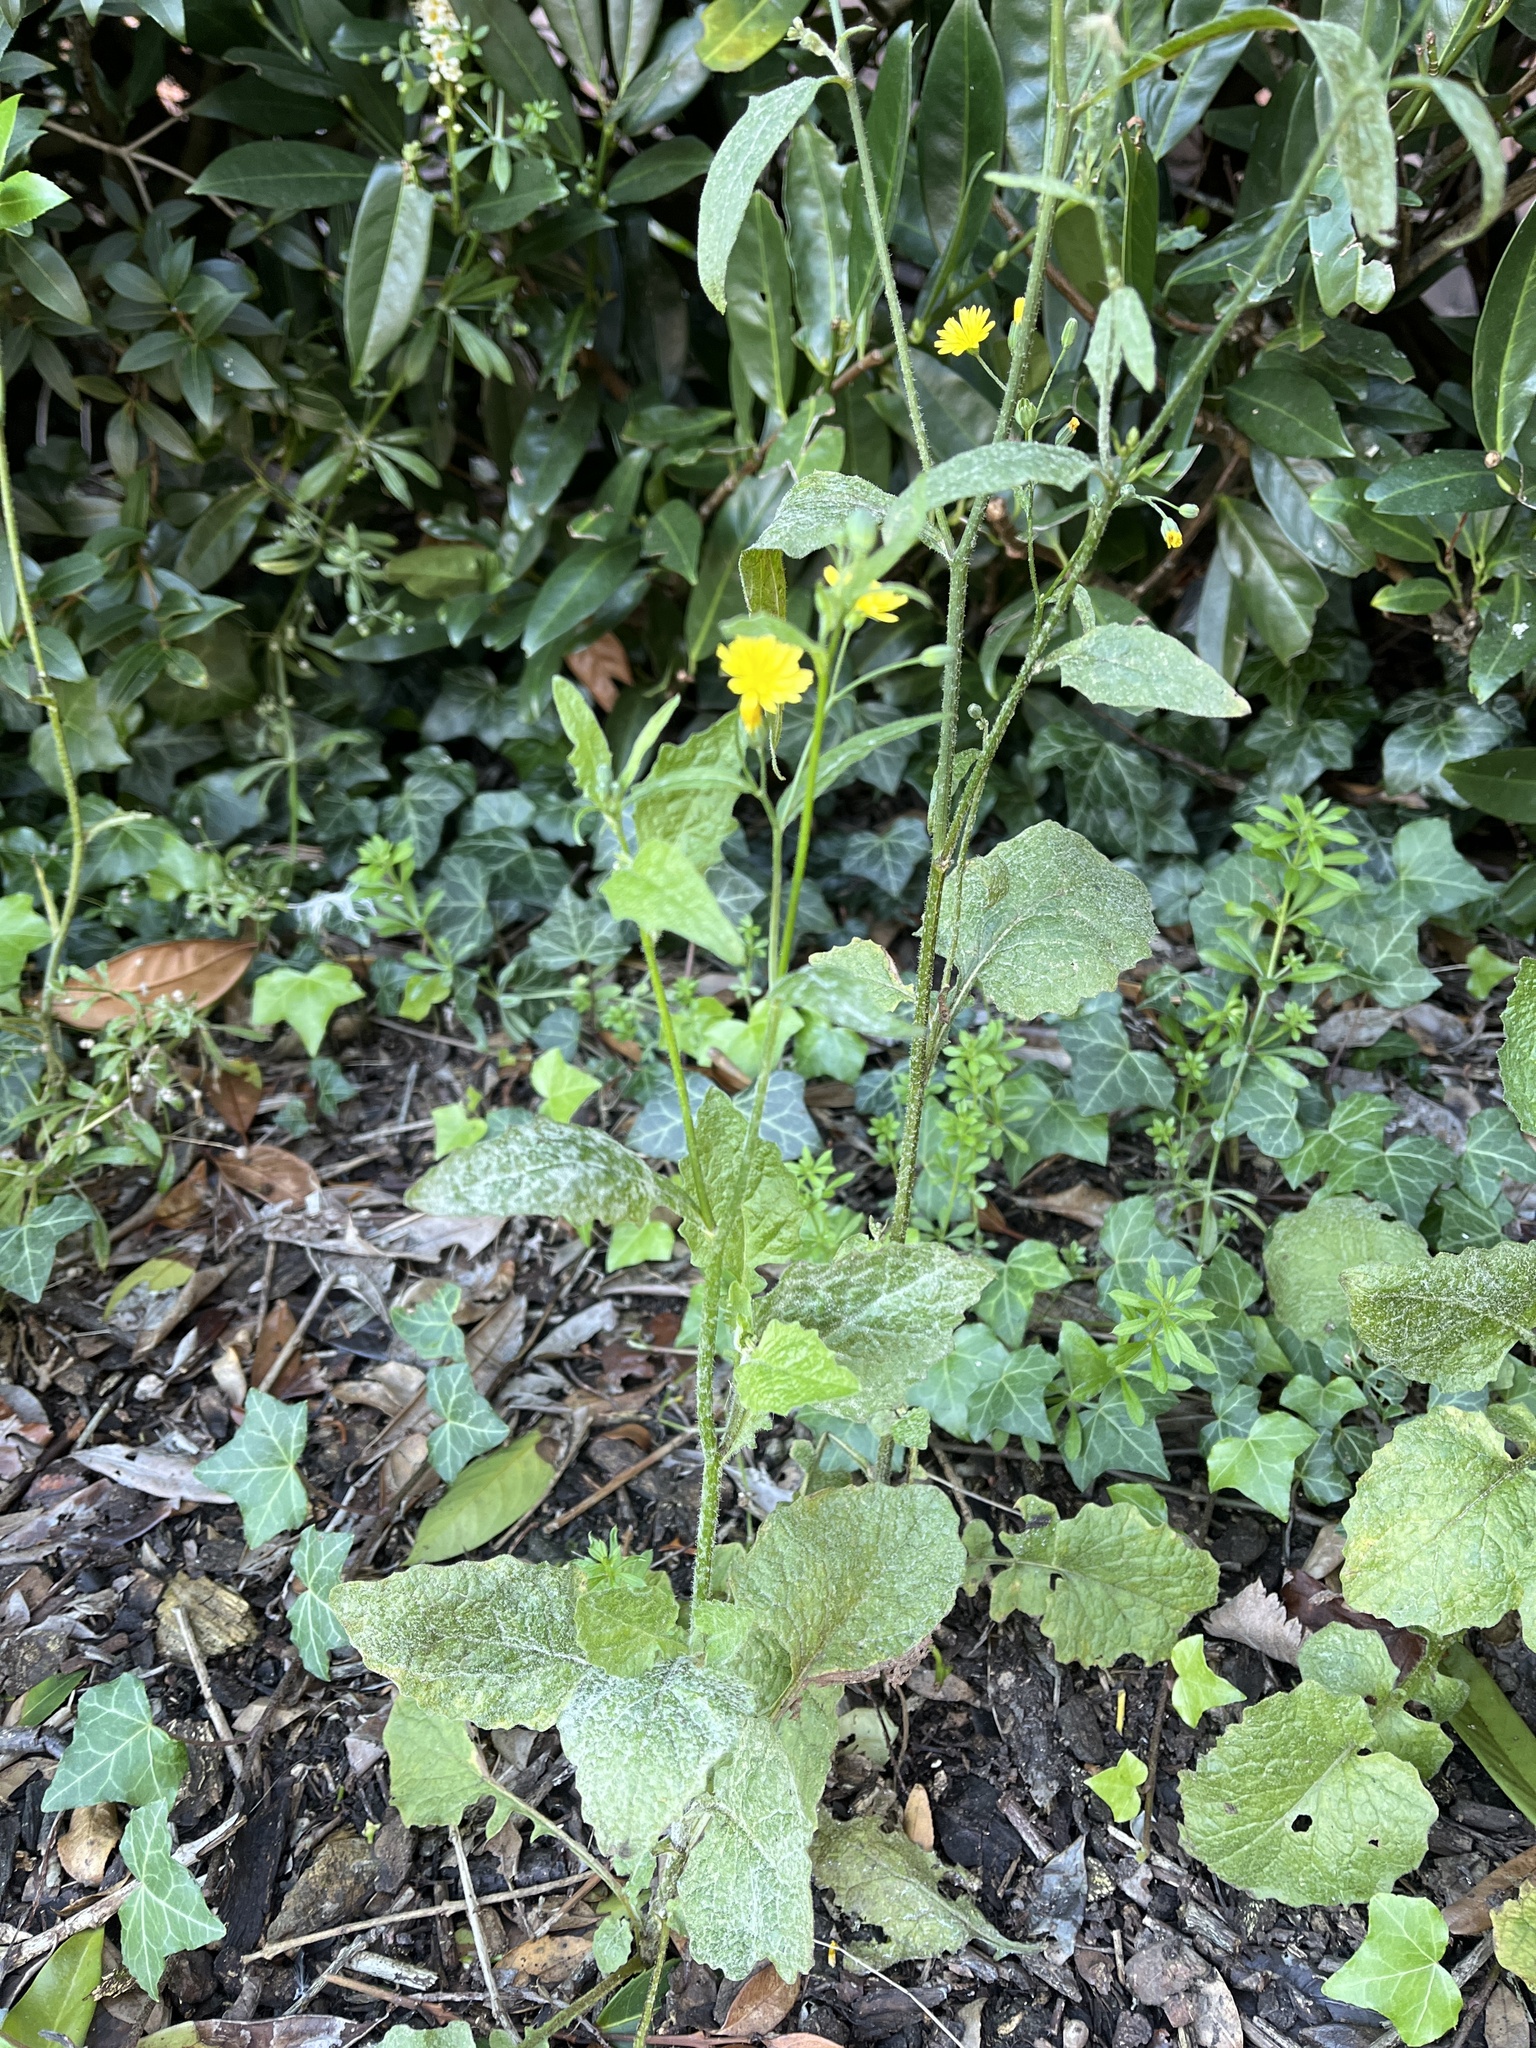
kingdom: Plantae
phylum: Tracheophyta
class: Magnoliopsida
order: Asterales
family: Asteraceae
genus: Lapsana
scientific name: Lapsana communis
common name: Nipplewort
